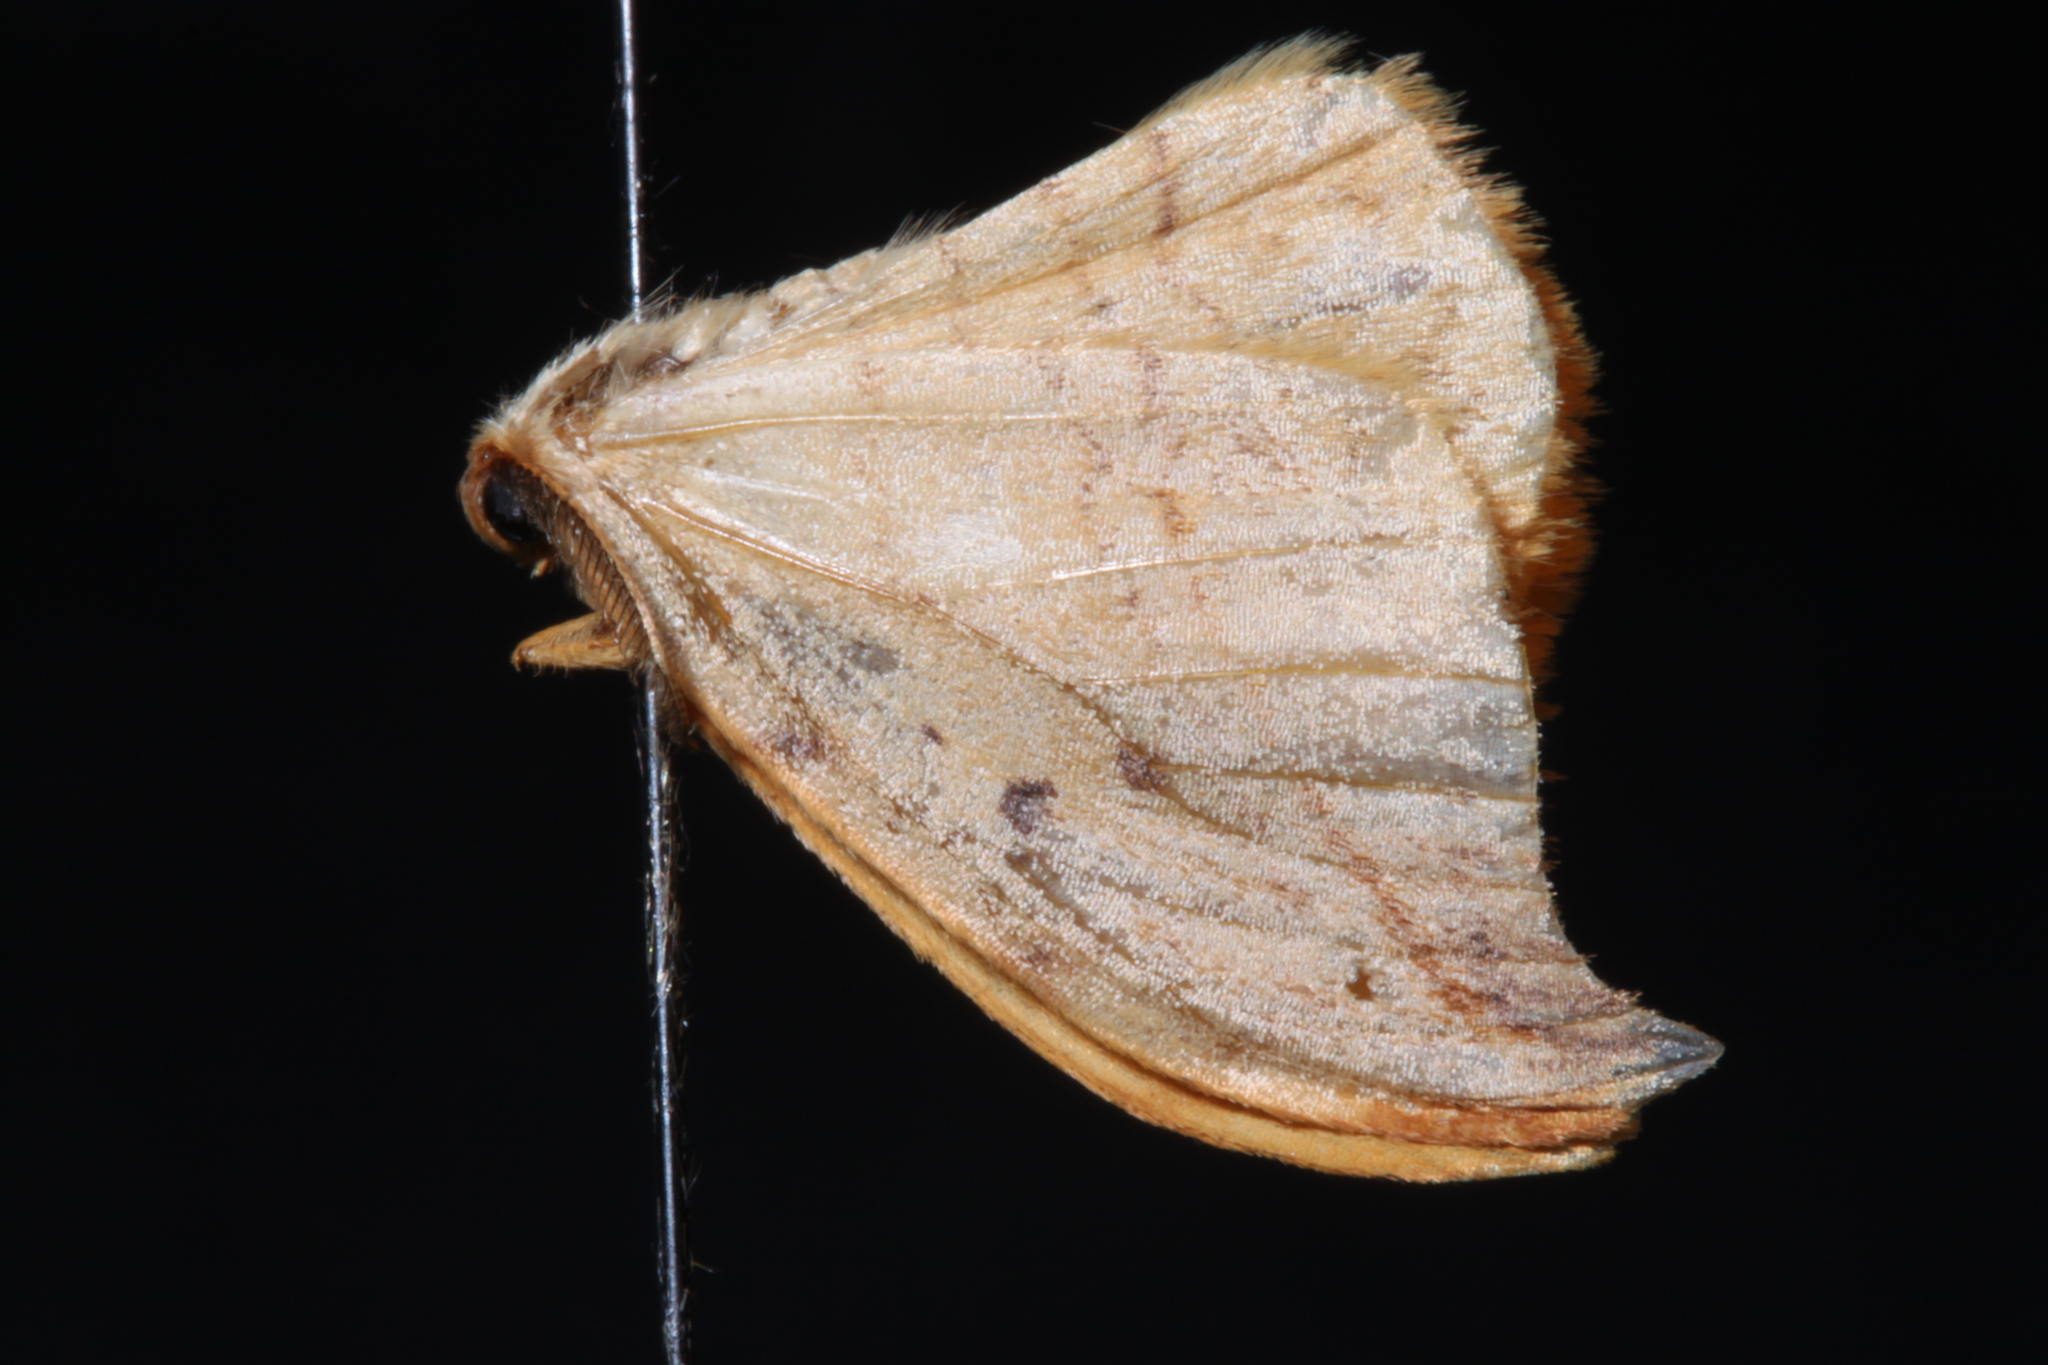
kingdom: Animalia
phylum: Arthropoda
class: Insecta
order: Lepidoptera
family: Drepanidae
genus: Drepana
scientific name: Drepana arcuata
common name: Arched hooktip moth
